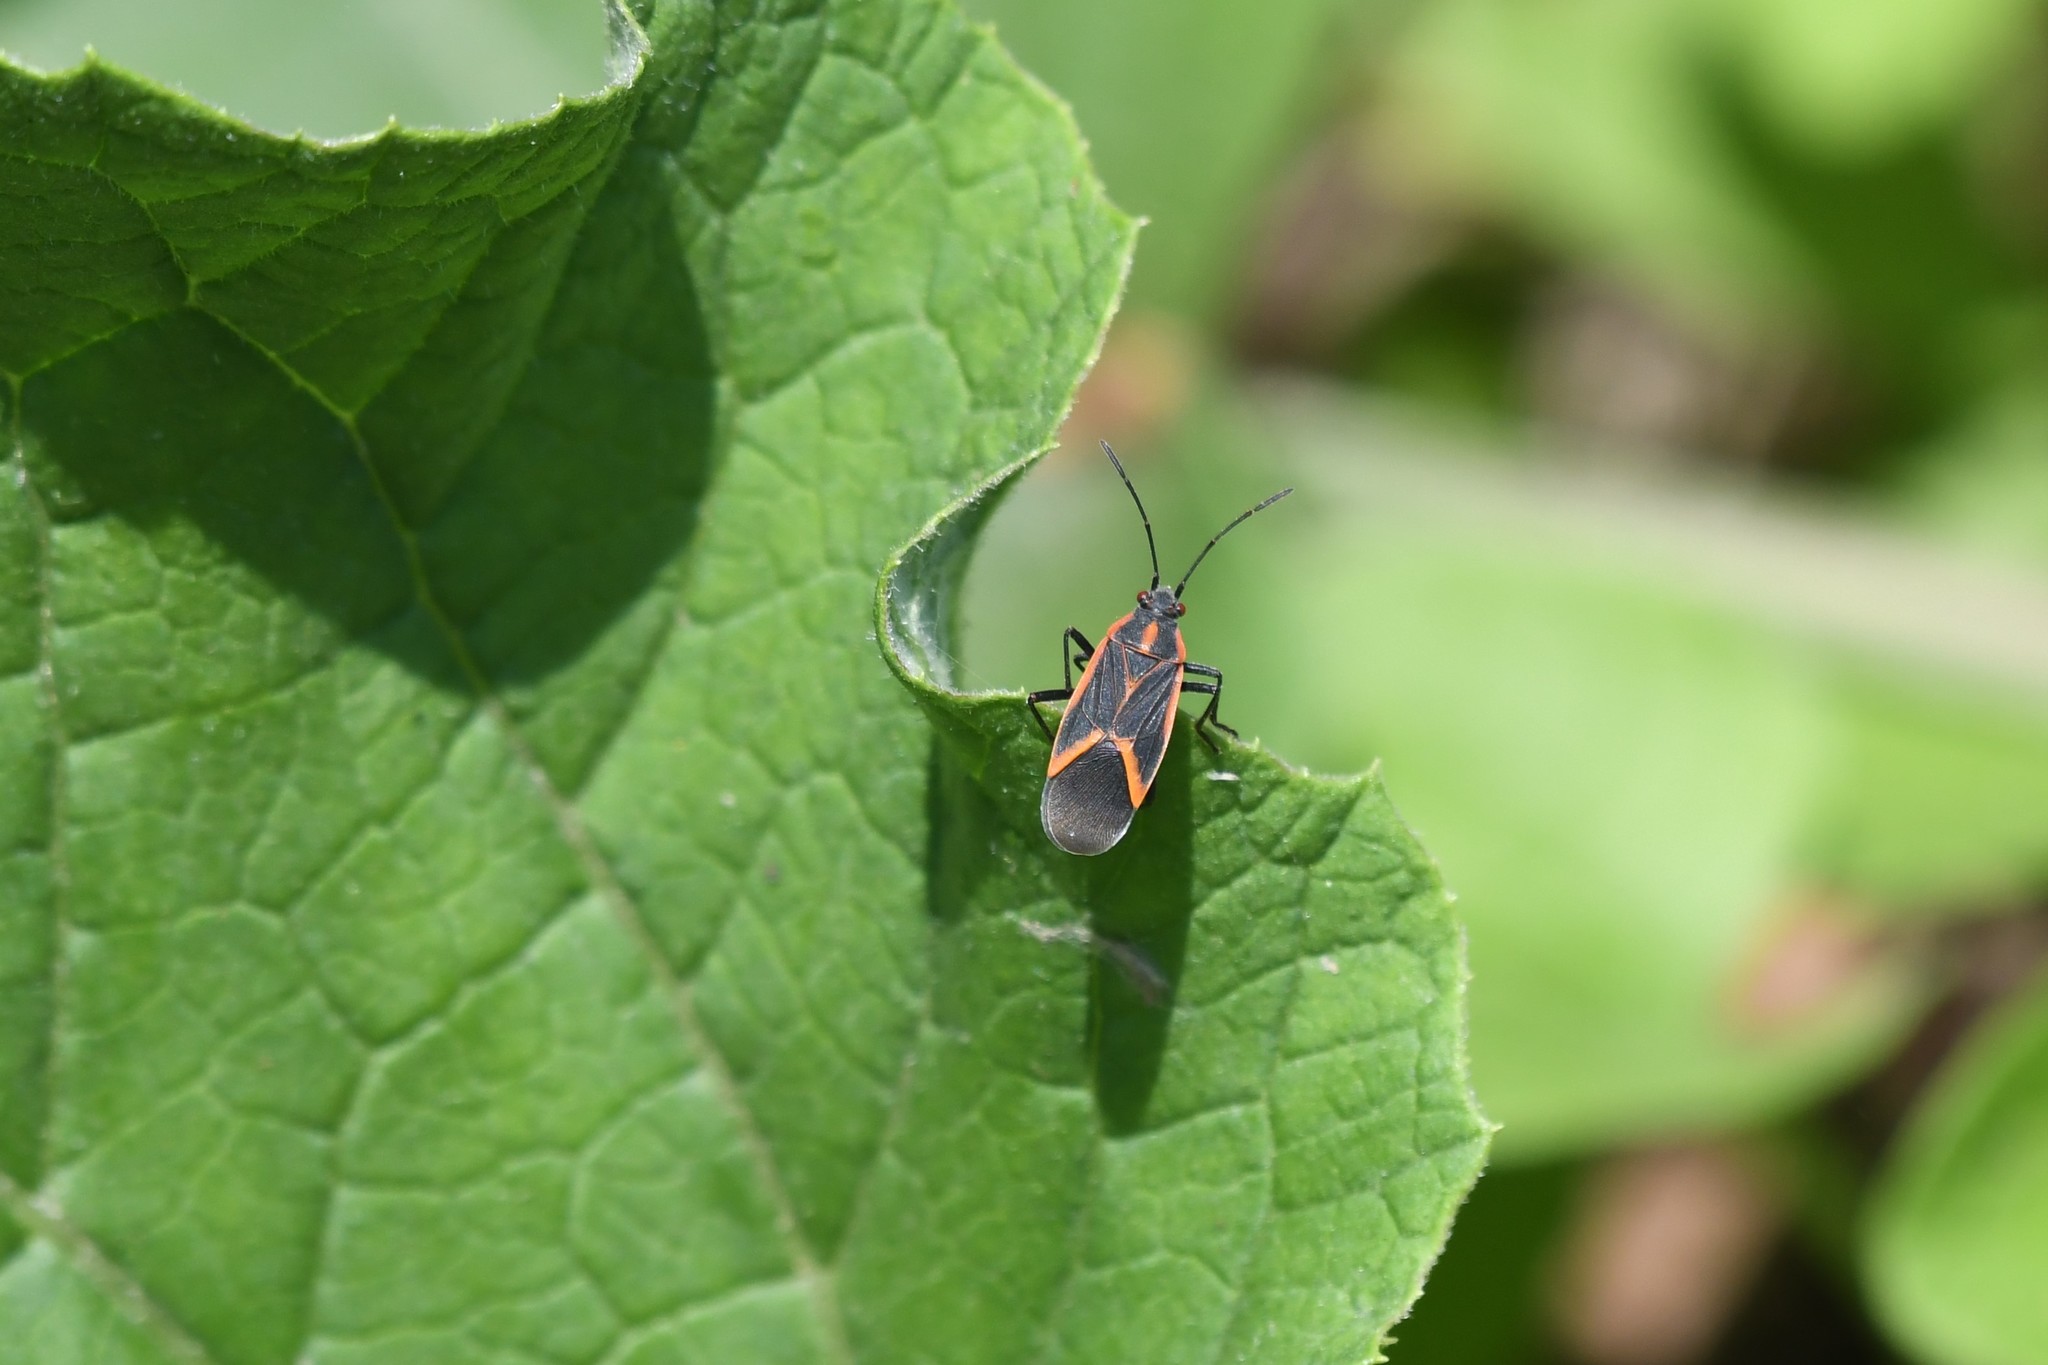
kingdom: Animalia
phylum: Arthropoda
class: Insecta
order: Hemiptera
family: Rhopalidae
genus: Boisea
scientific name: Boisea trivittata
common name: Boxelder bug
